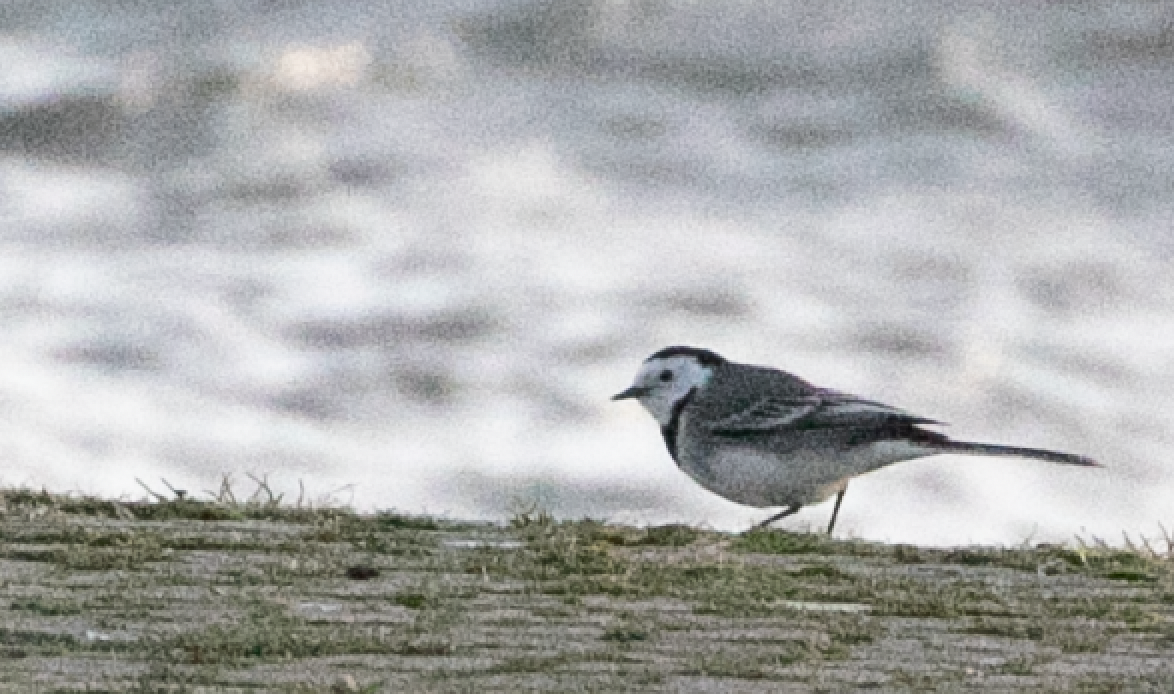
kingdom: Animalia
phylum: Chordata
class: Aves
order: Passeriformes
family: Motacillidae
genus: Motacilla
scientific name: Motacilla alba
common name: White wagtail
